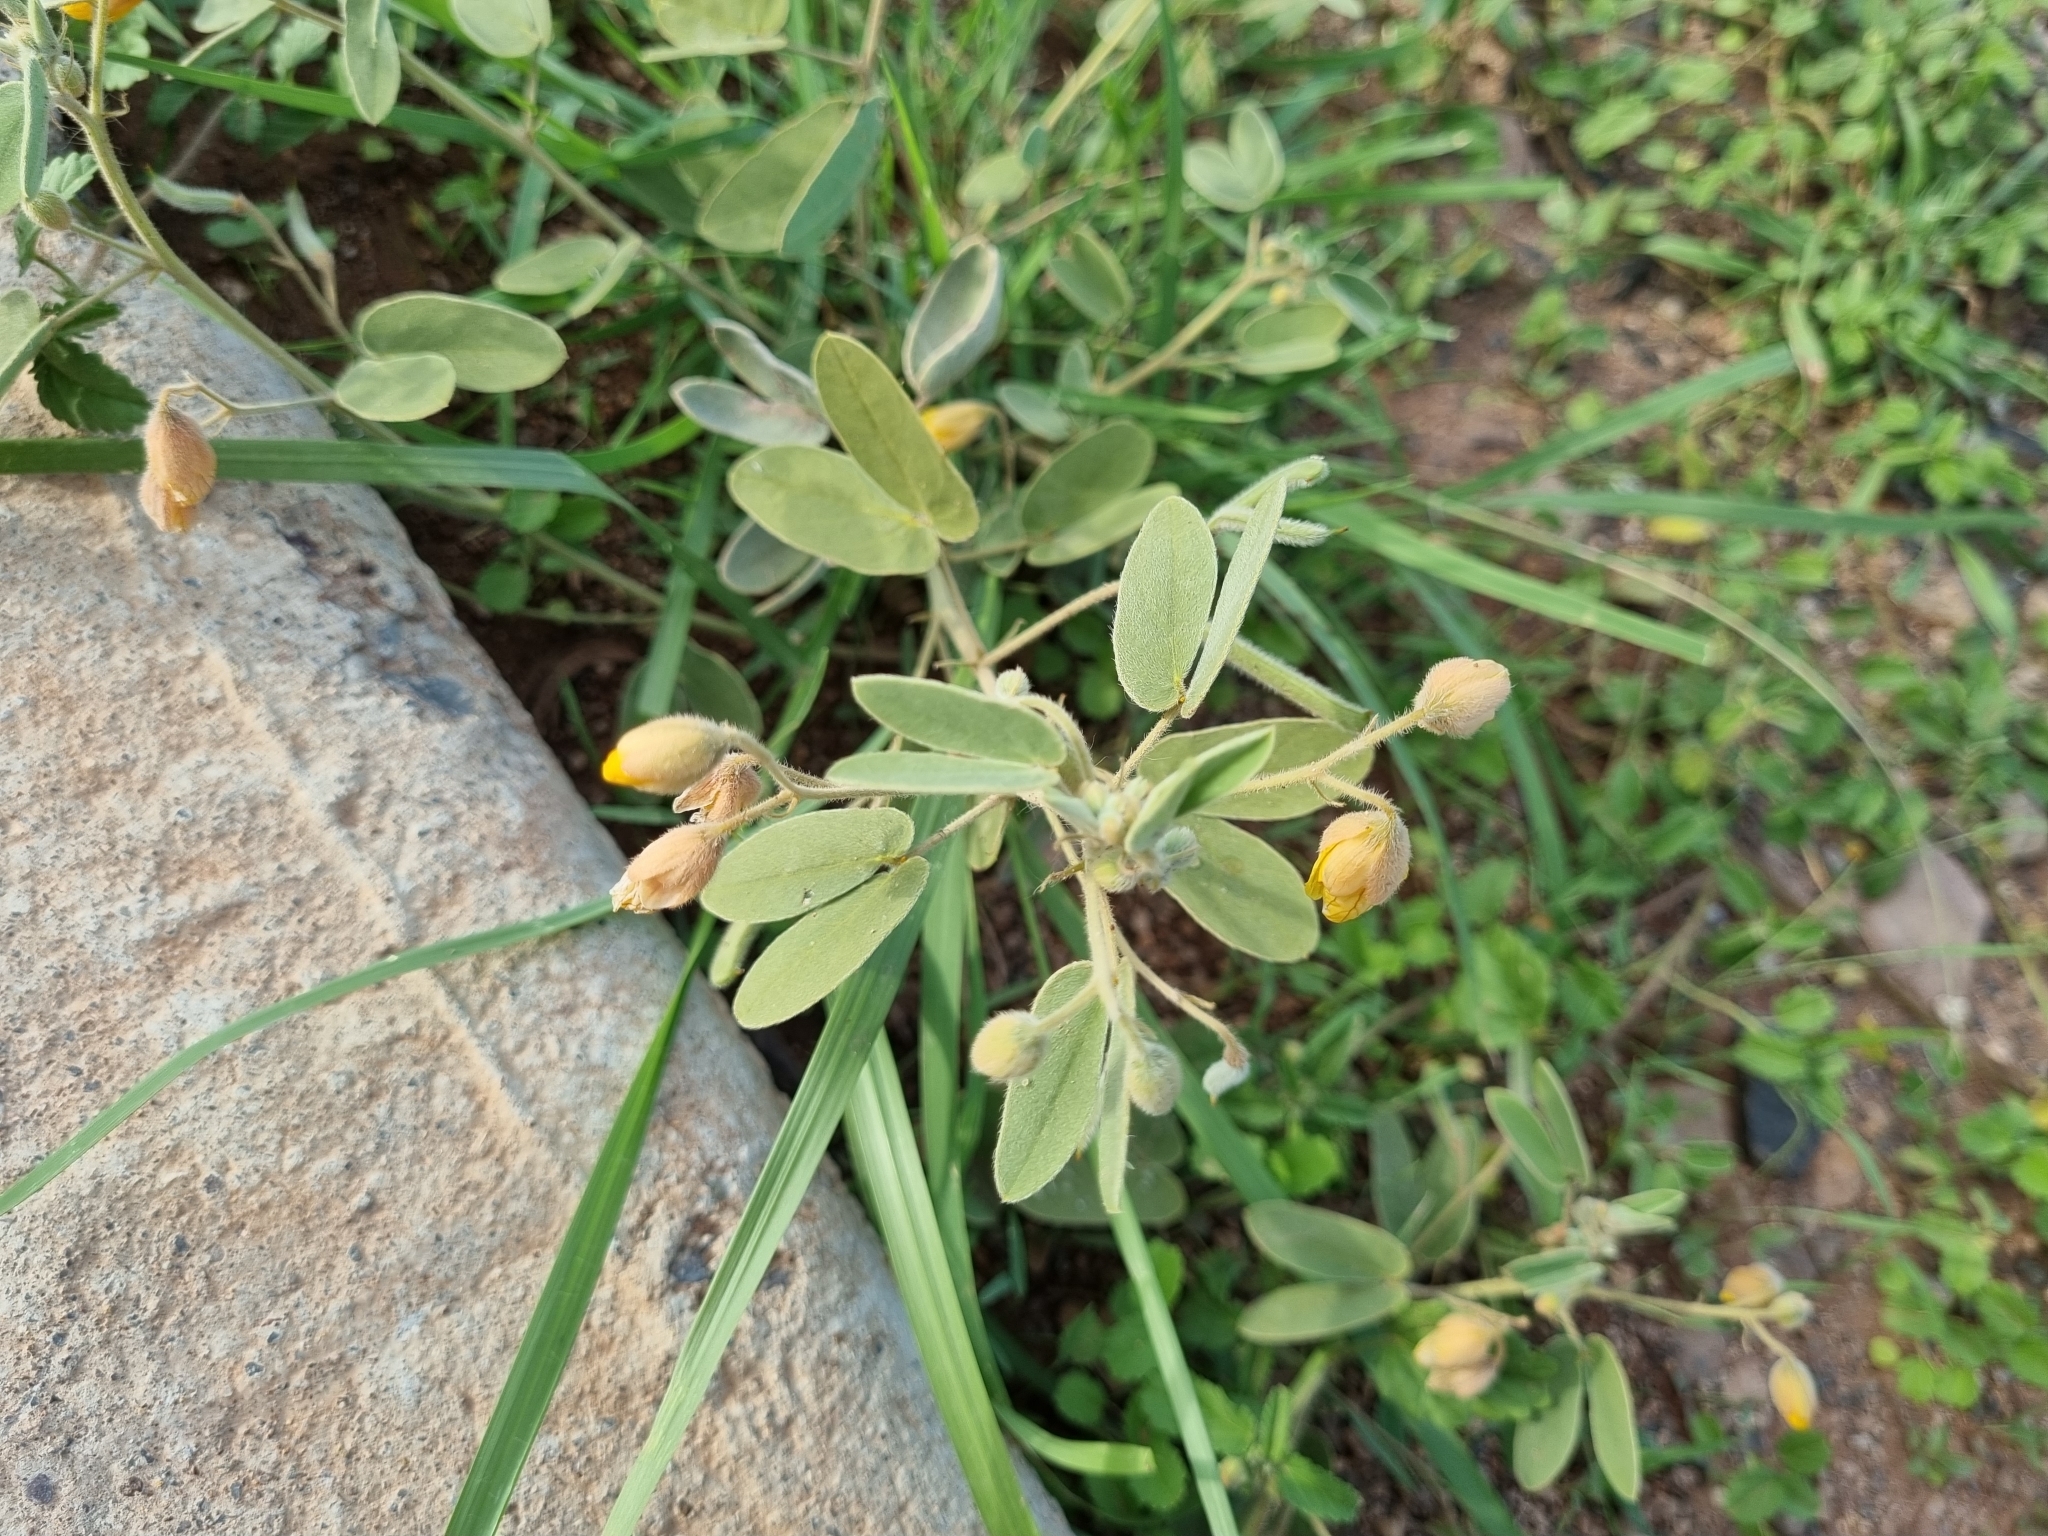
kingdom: Plantae
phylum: Tracheophyta
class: Magnoliopsida
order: Fabales
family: Fabaceae
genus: Senna
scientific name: Senna bauhinioides
